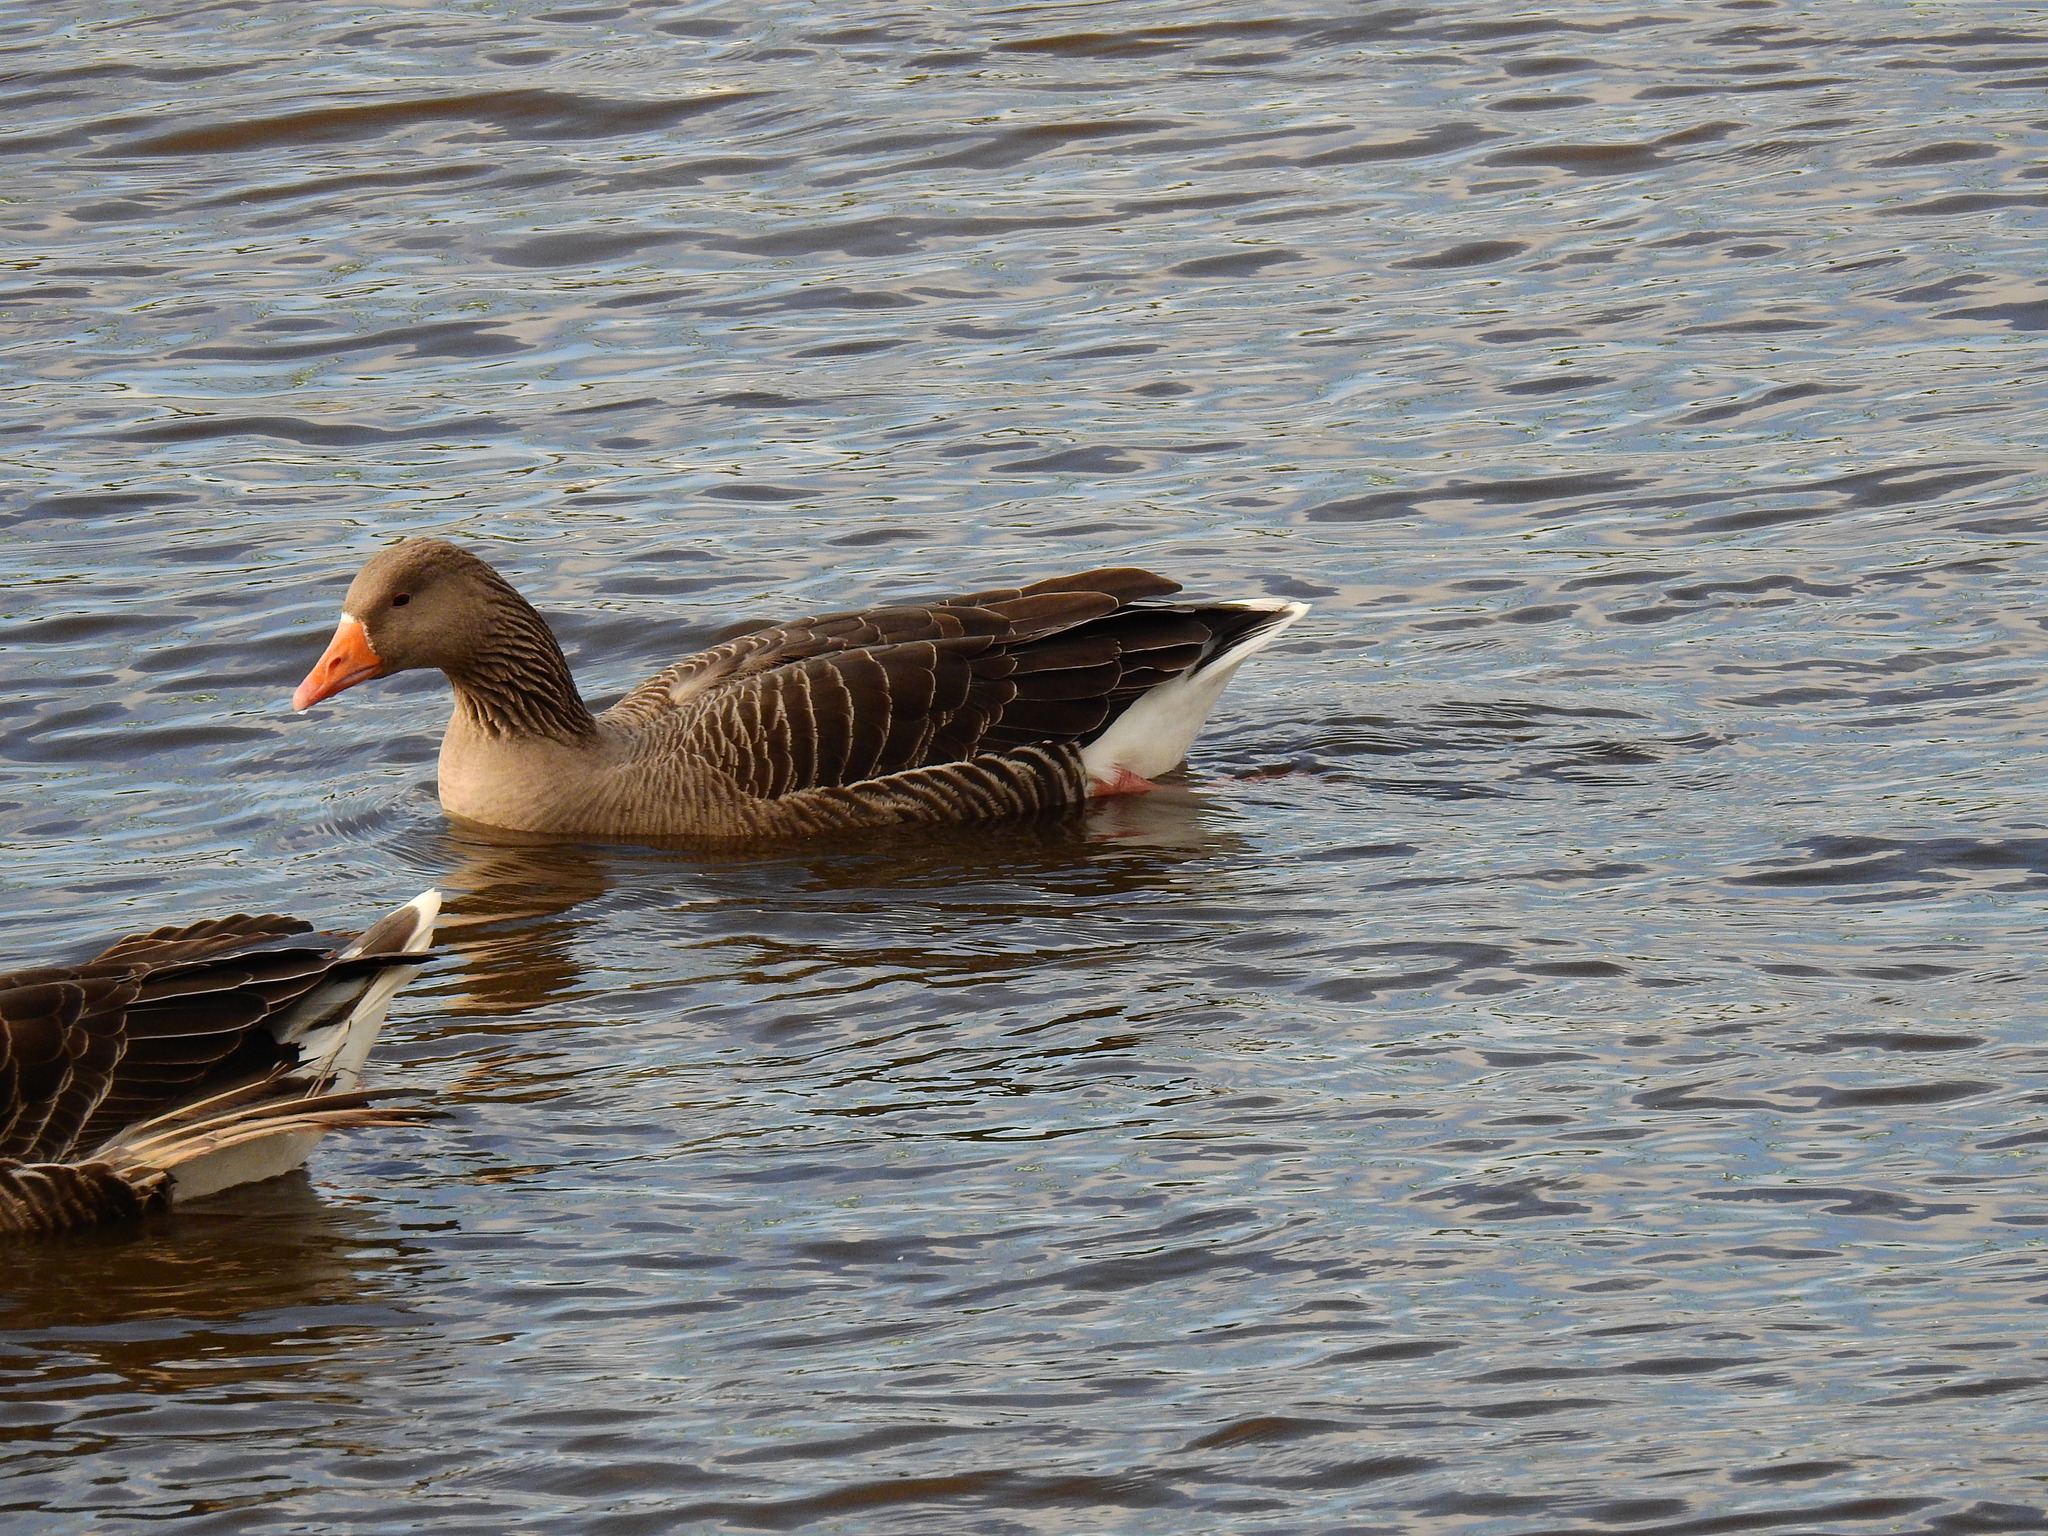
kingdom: Animalia
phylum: Chordata
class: Aves
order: Anseriformes
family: Anatidae
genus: Anser
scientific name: Anser anser
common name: Greylag goose
